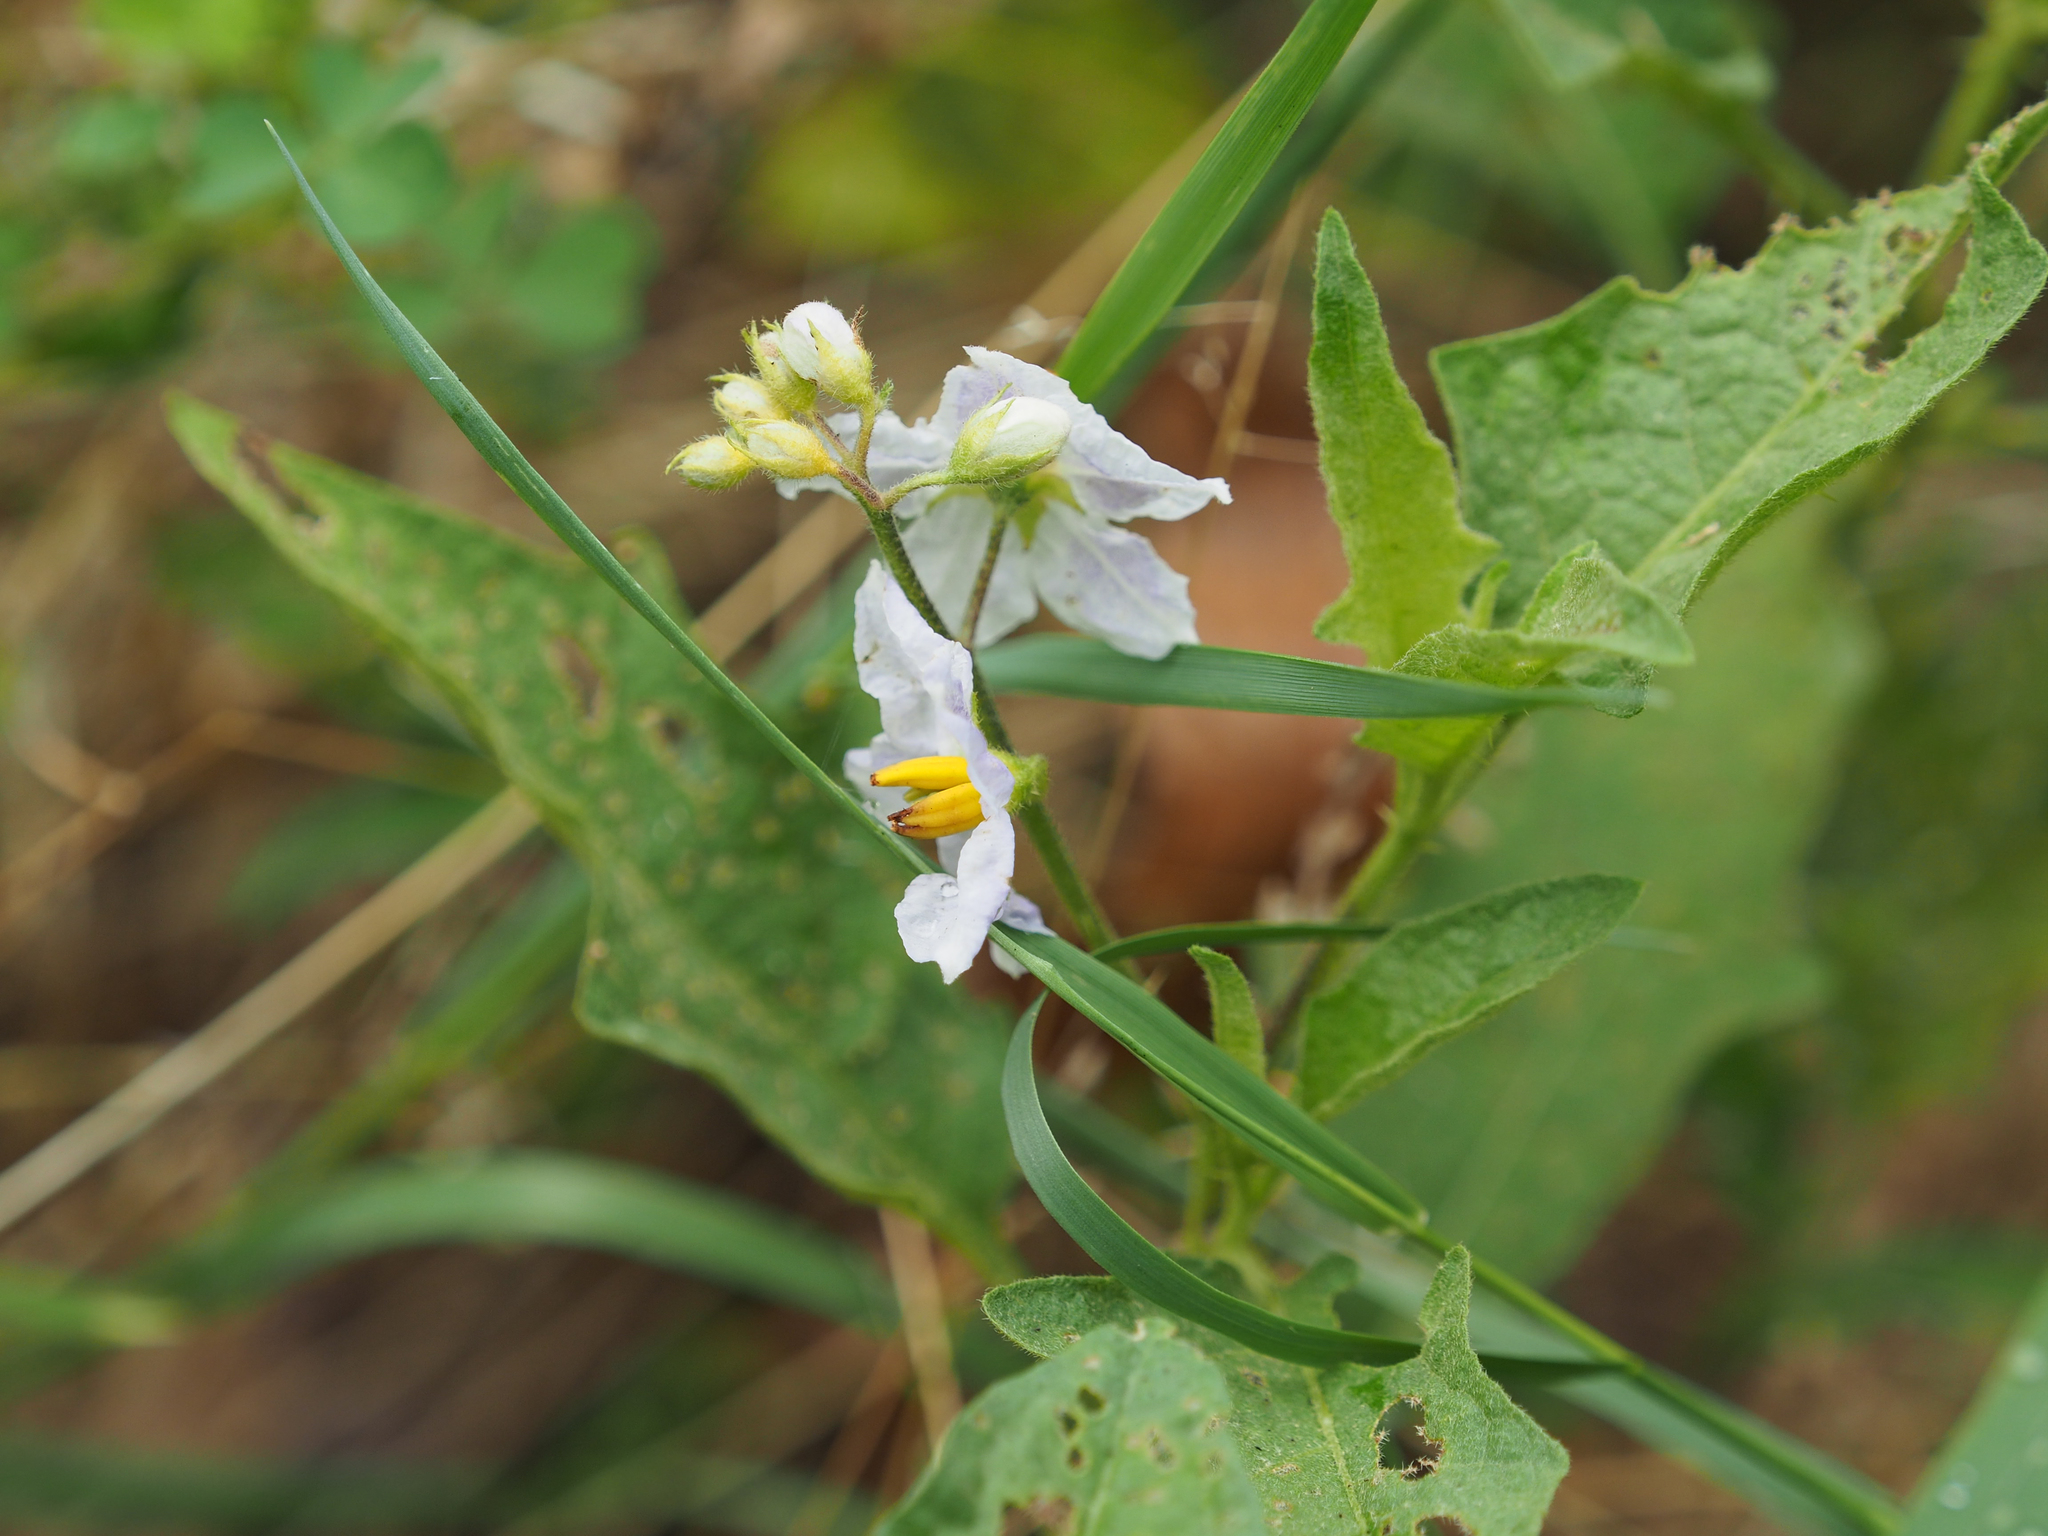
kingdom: Plantae
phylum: Tracheophyta
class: Magnoliopsida
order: Solanales
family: Solanaceae
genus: Solanum
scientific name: Solanum carolinense
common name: Horse-nettle
